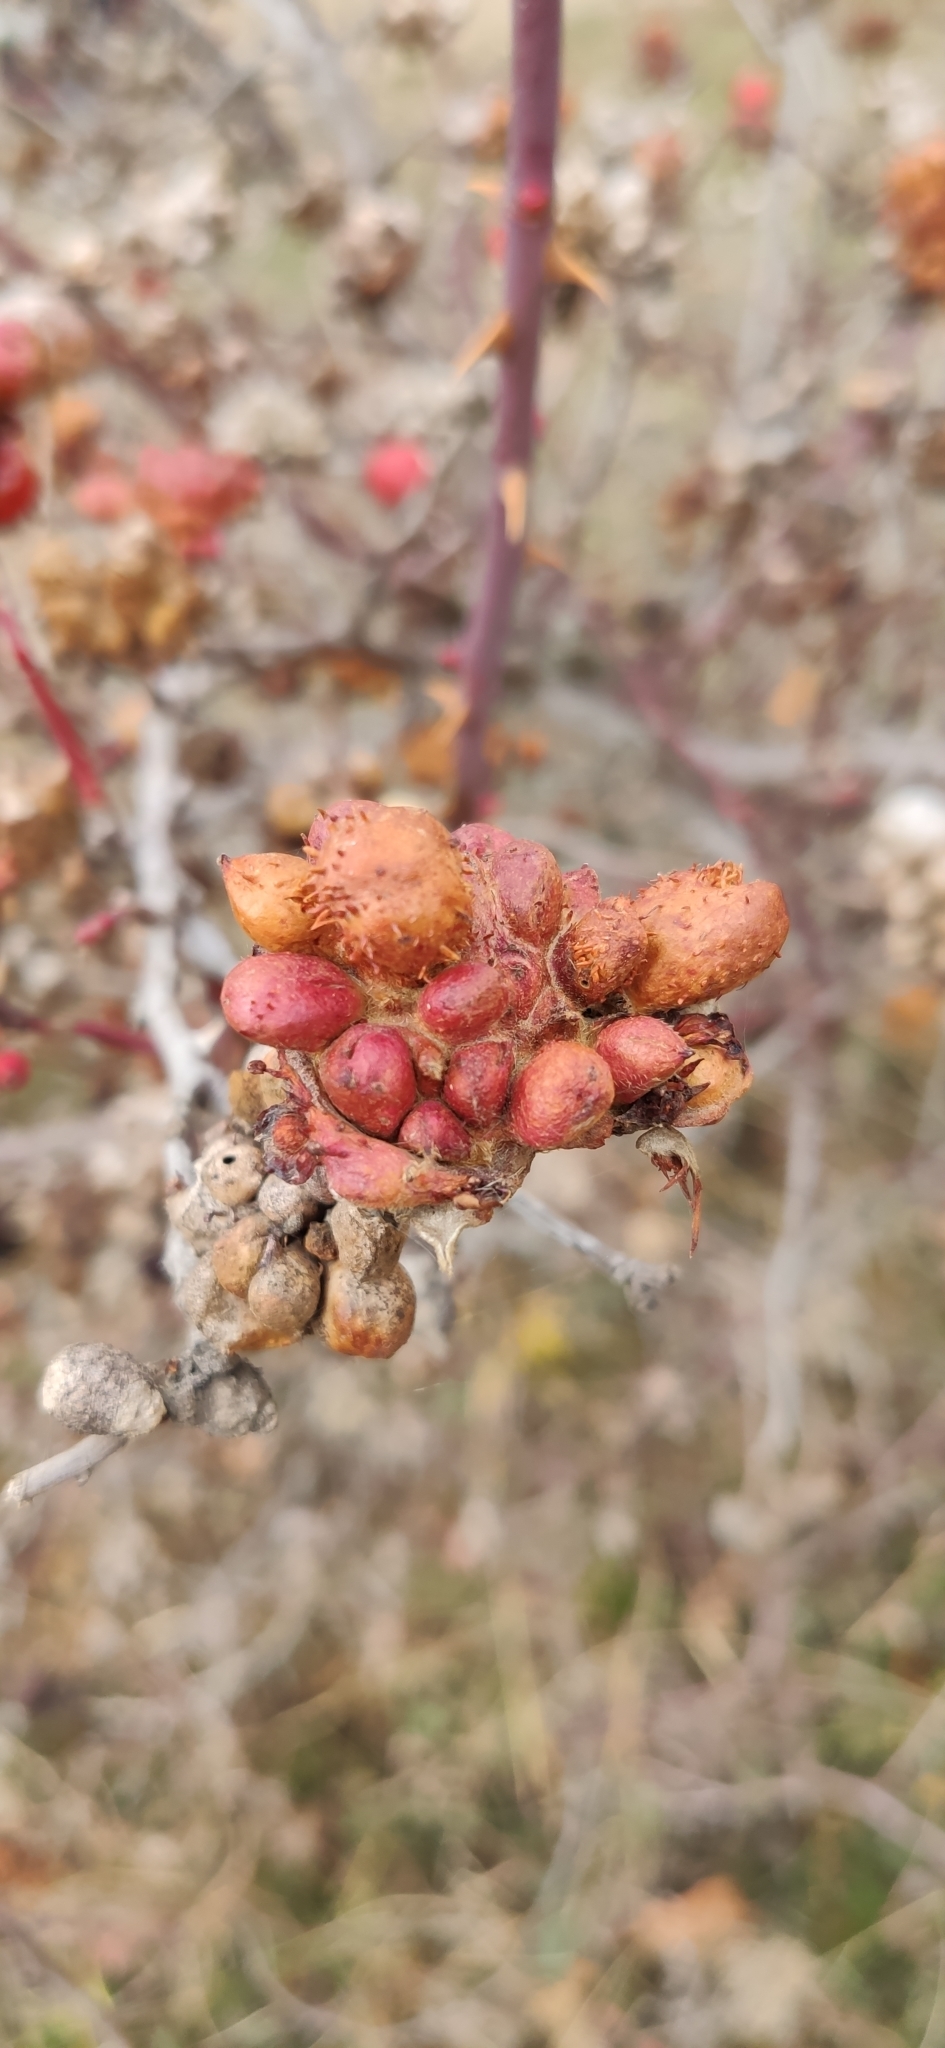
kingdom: Animalia
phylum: Arthropoda
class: Insecta
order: Hymenoptera
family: Cynipidae
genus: Diplolepis
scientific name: Diplolepis fructuum
